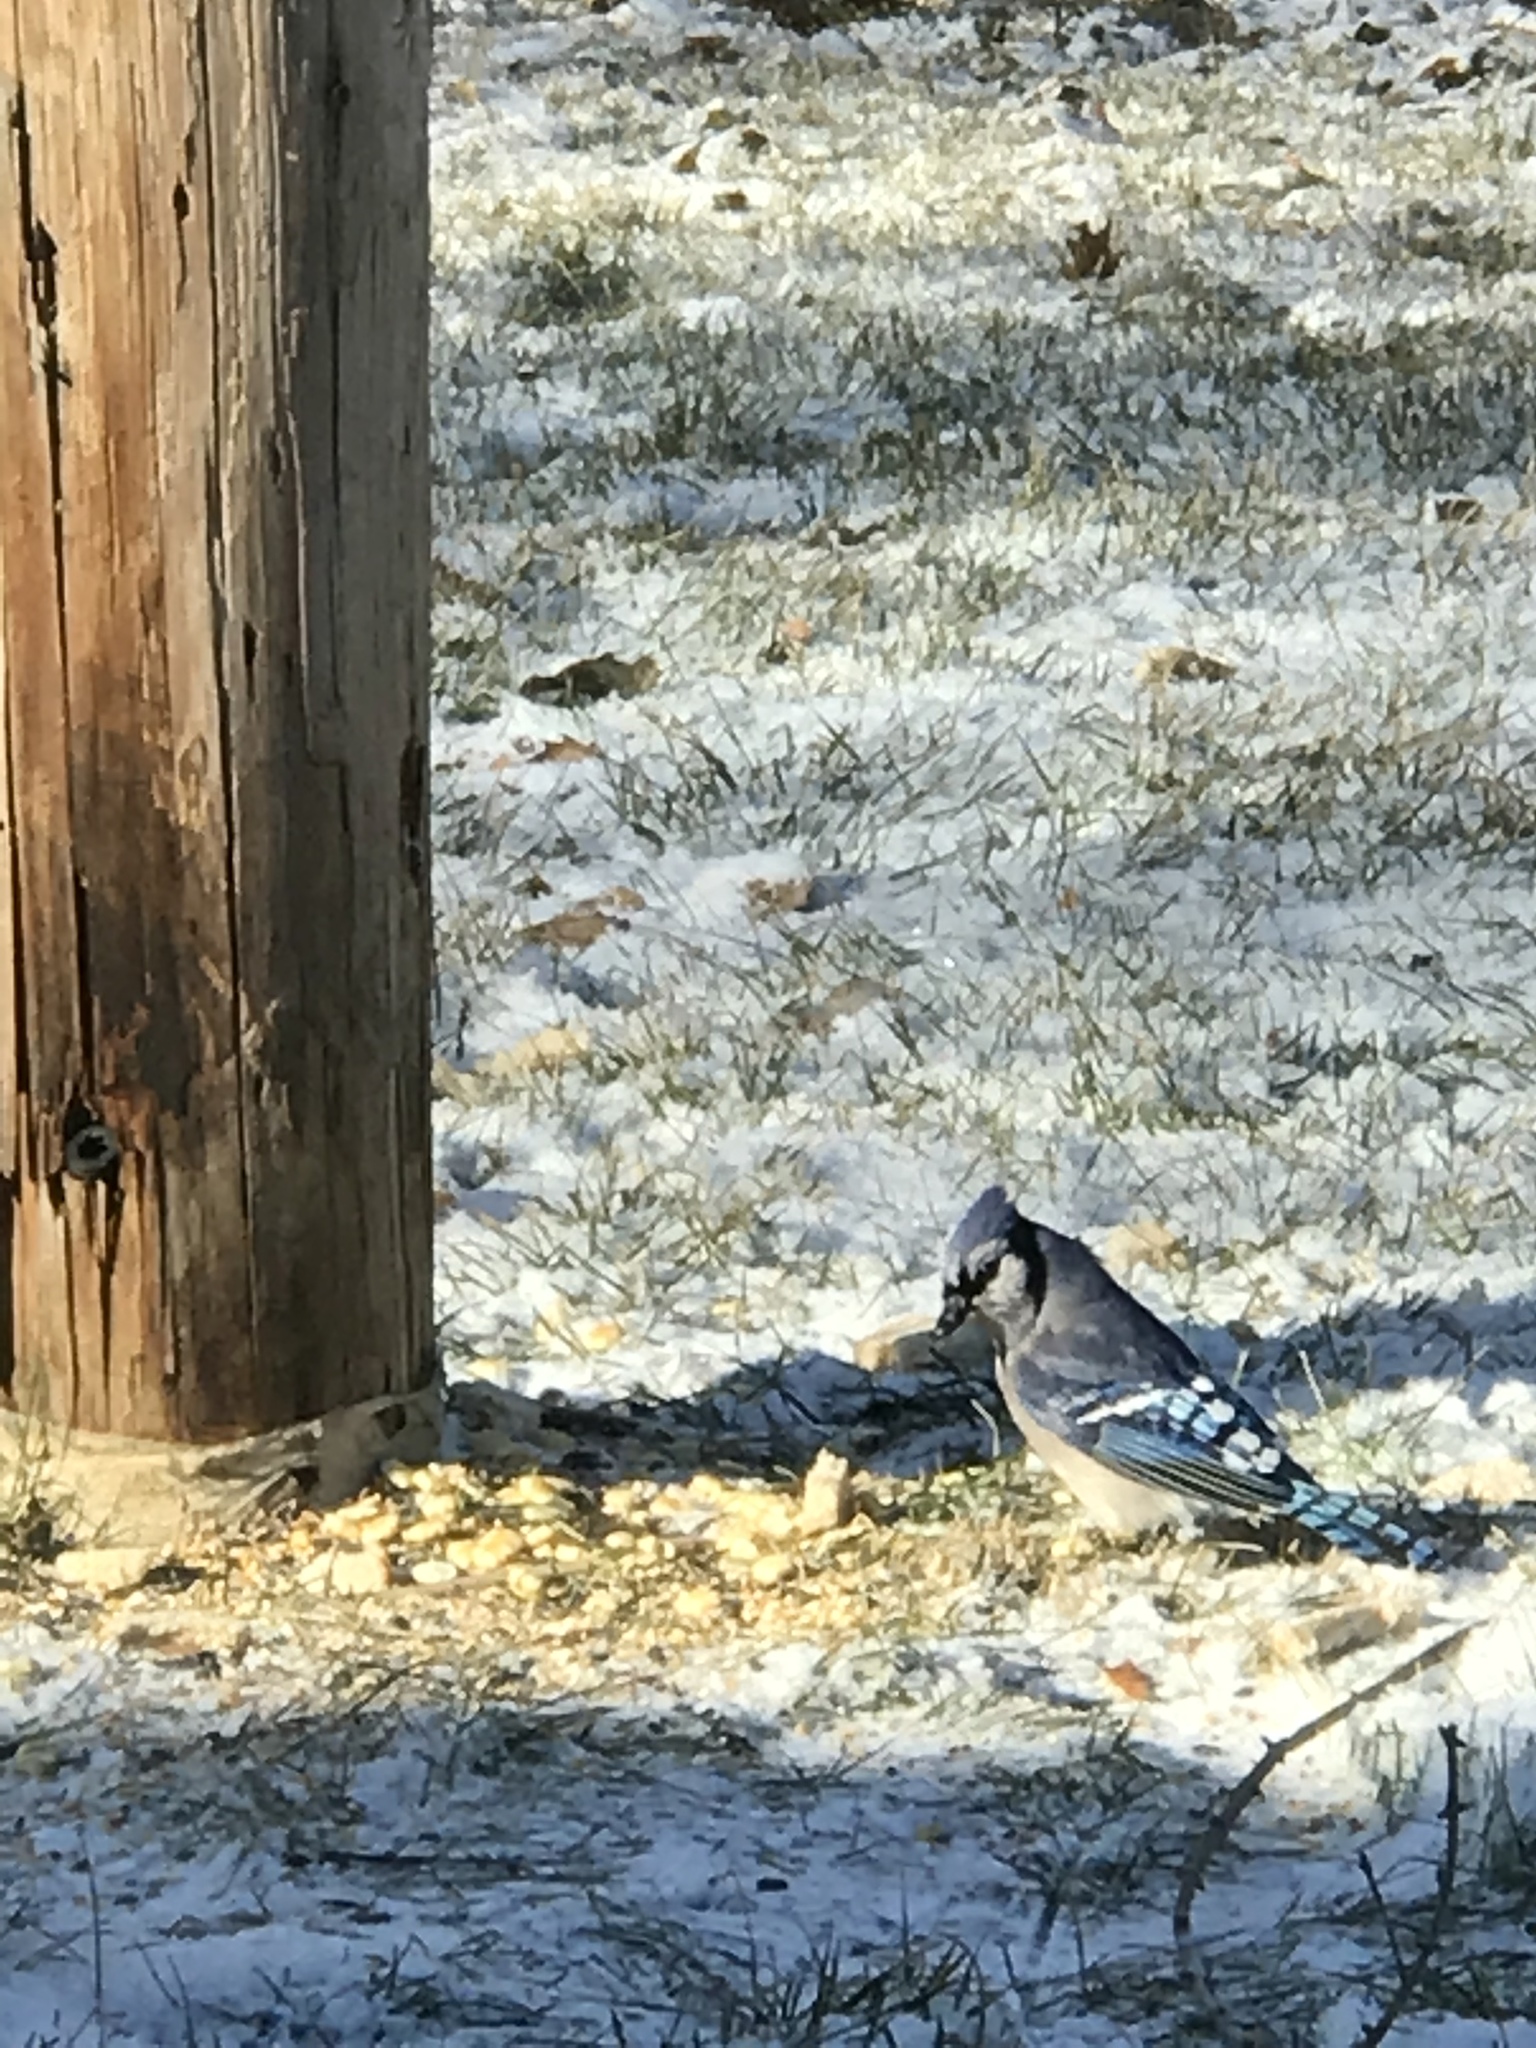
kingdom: Animalia
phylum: Chordata
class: Aves
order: Passeriformes
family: Corvidae
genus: Cyanocitta
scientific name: Cyanocitta cristata
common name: Blue jay
